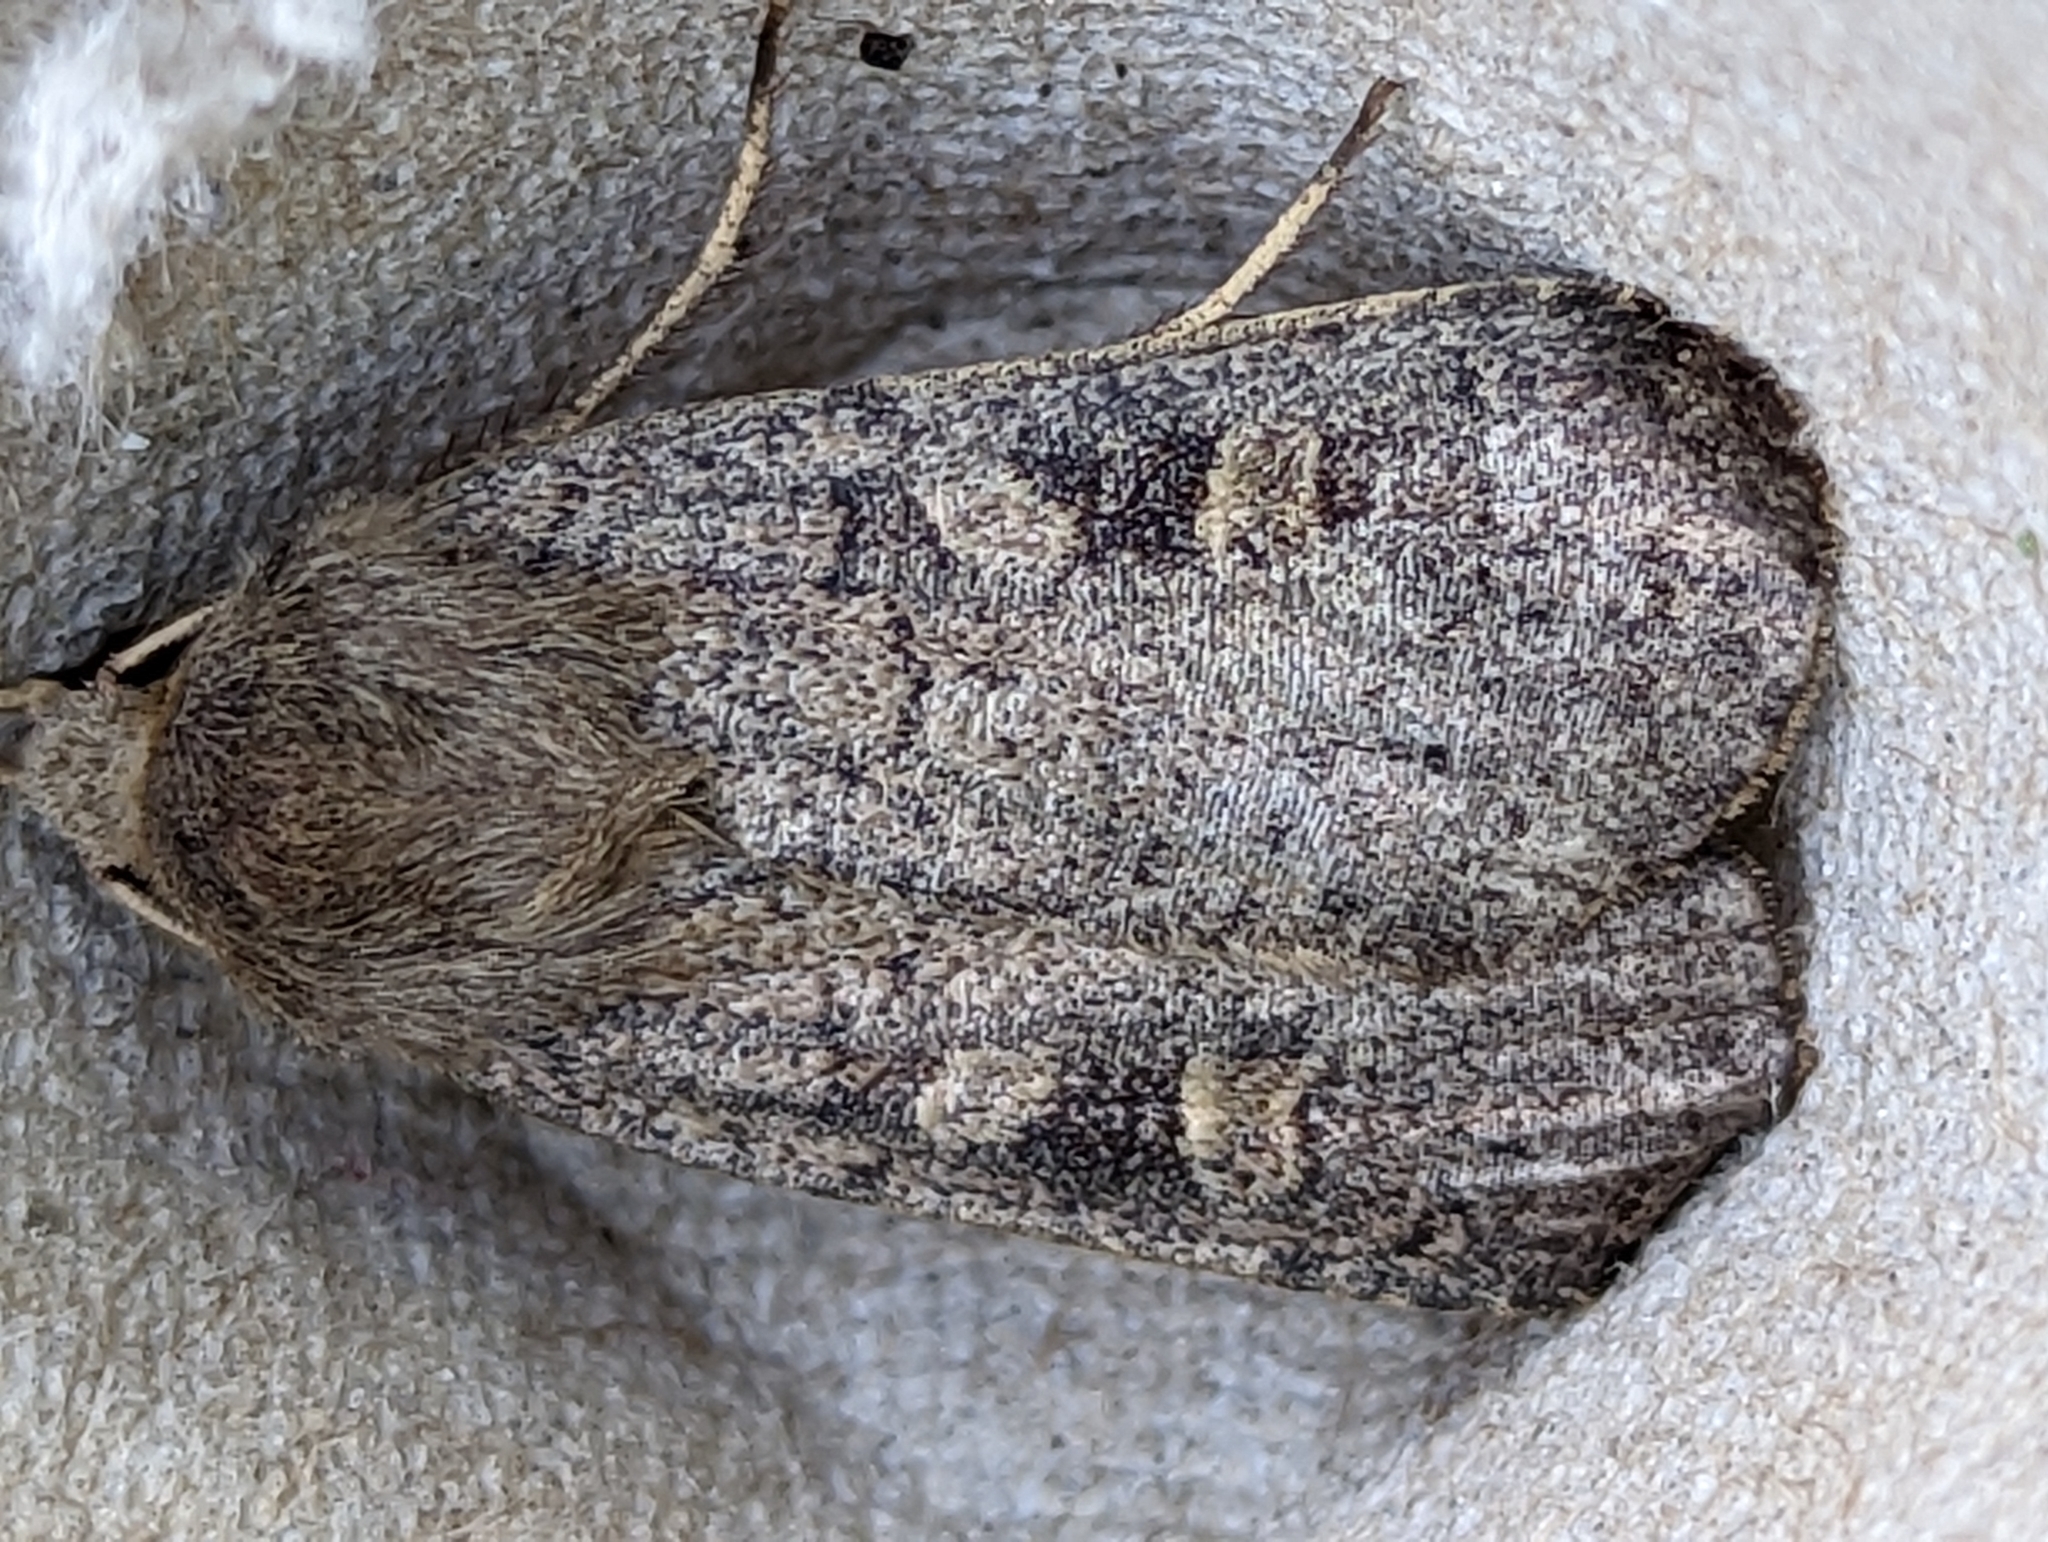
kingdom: Animalia
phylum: Arthropoda
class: Insecta
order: Lepidoptera
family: Noctuidae
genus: Xestia
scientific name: Xestia xanthographa
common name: Square-spot rustic
